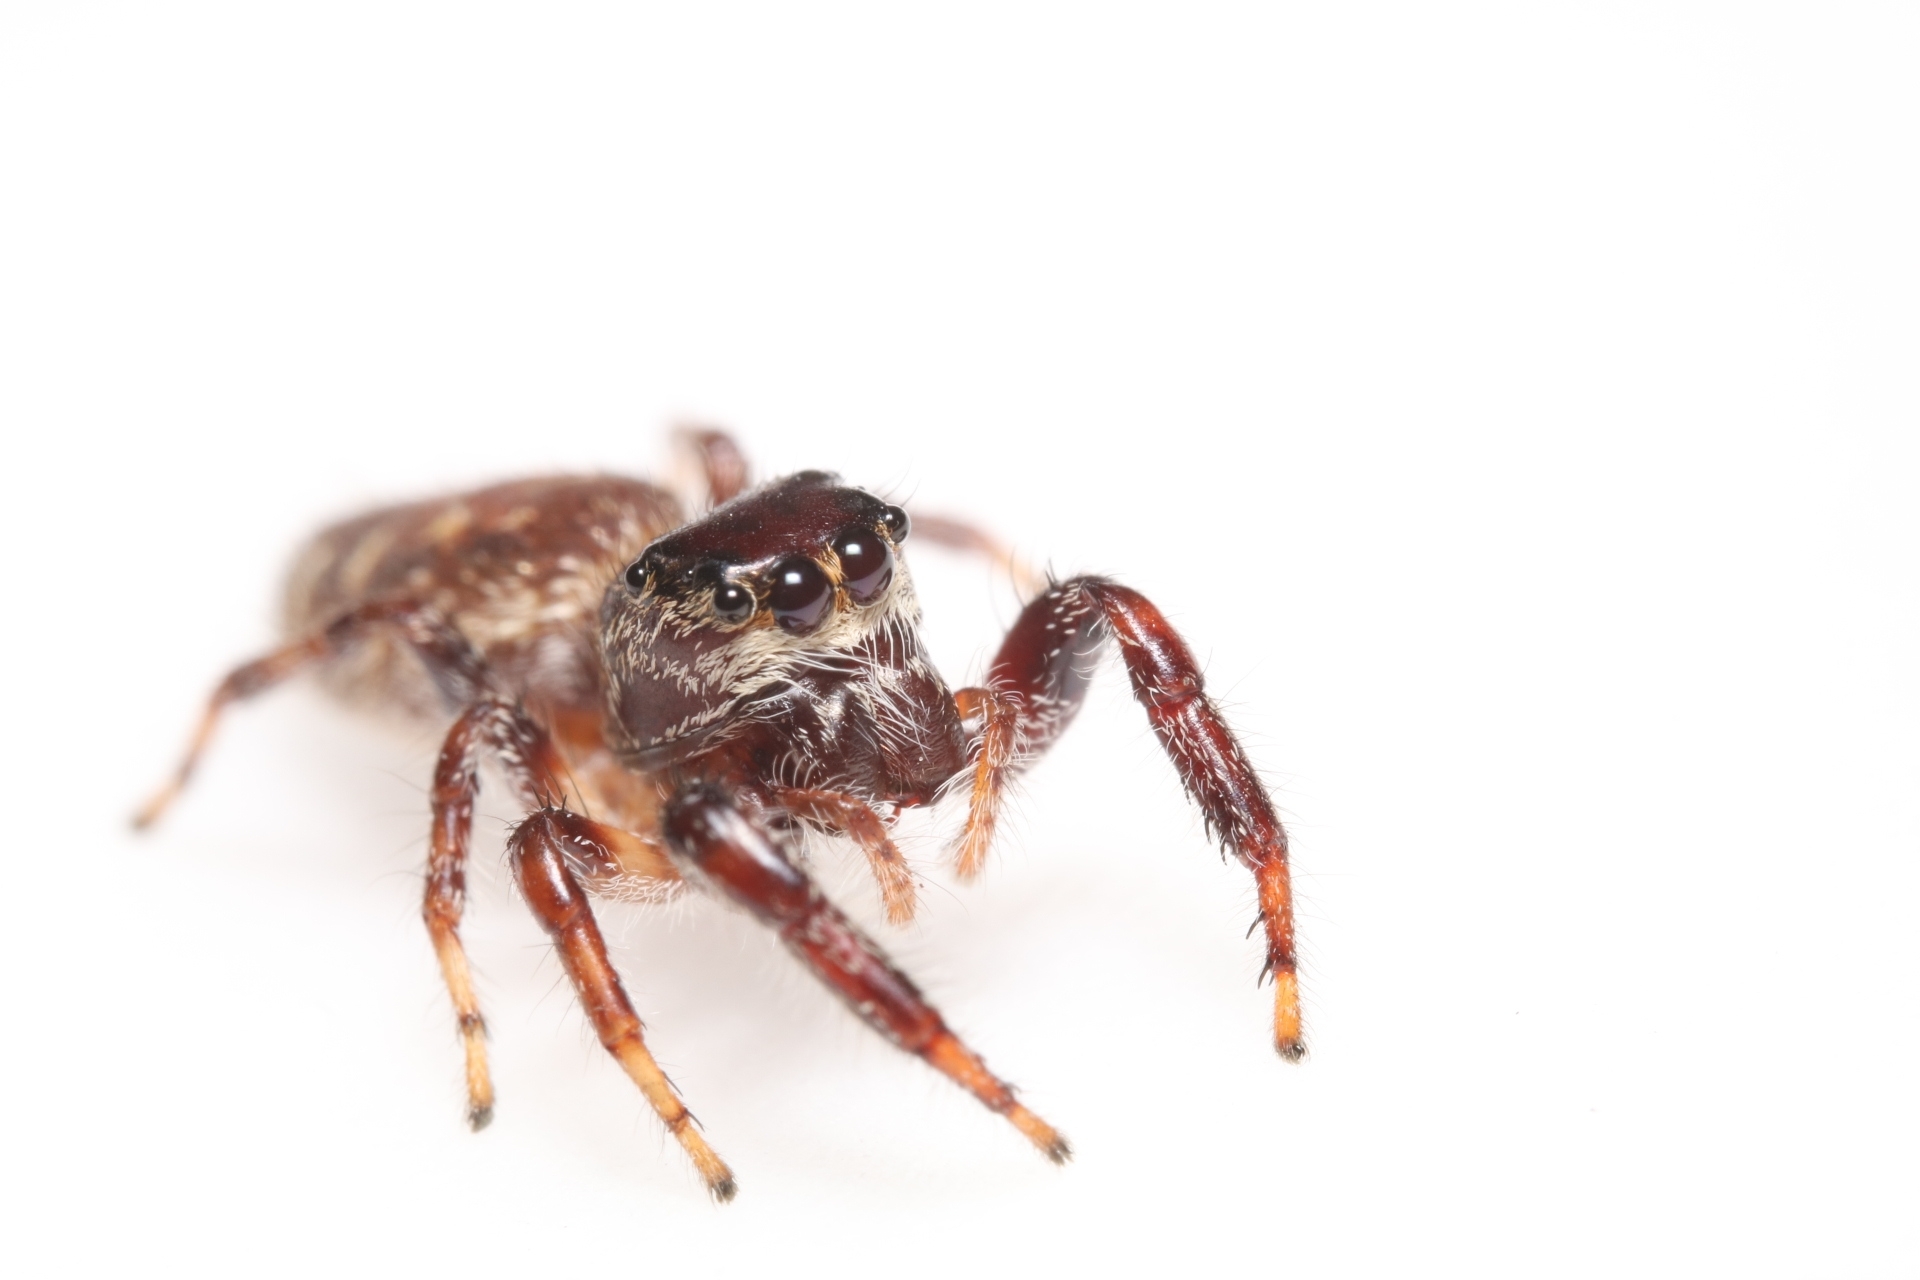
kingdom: Animalia
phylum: Arthropoda
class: Arachnida
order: Araneae
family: Salticidae
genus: Eris
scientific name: Eris militaris
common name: Bronze jumper
